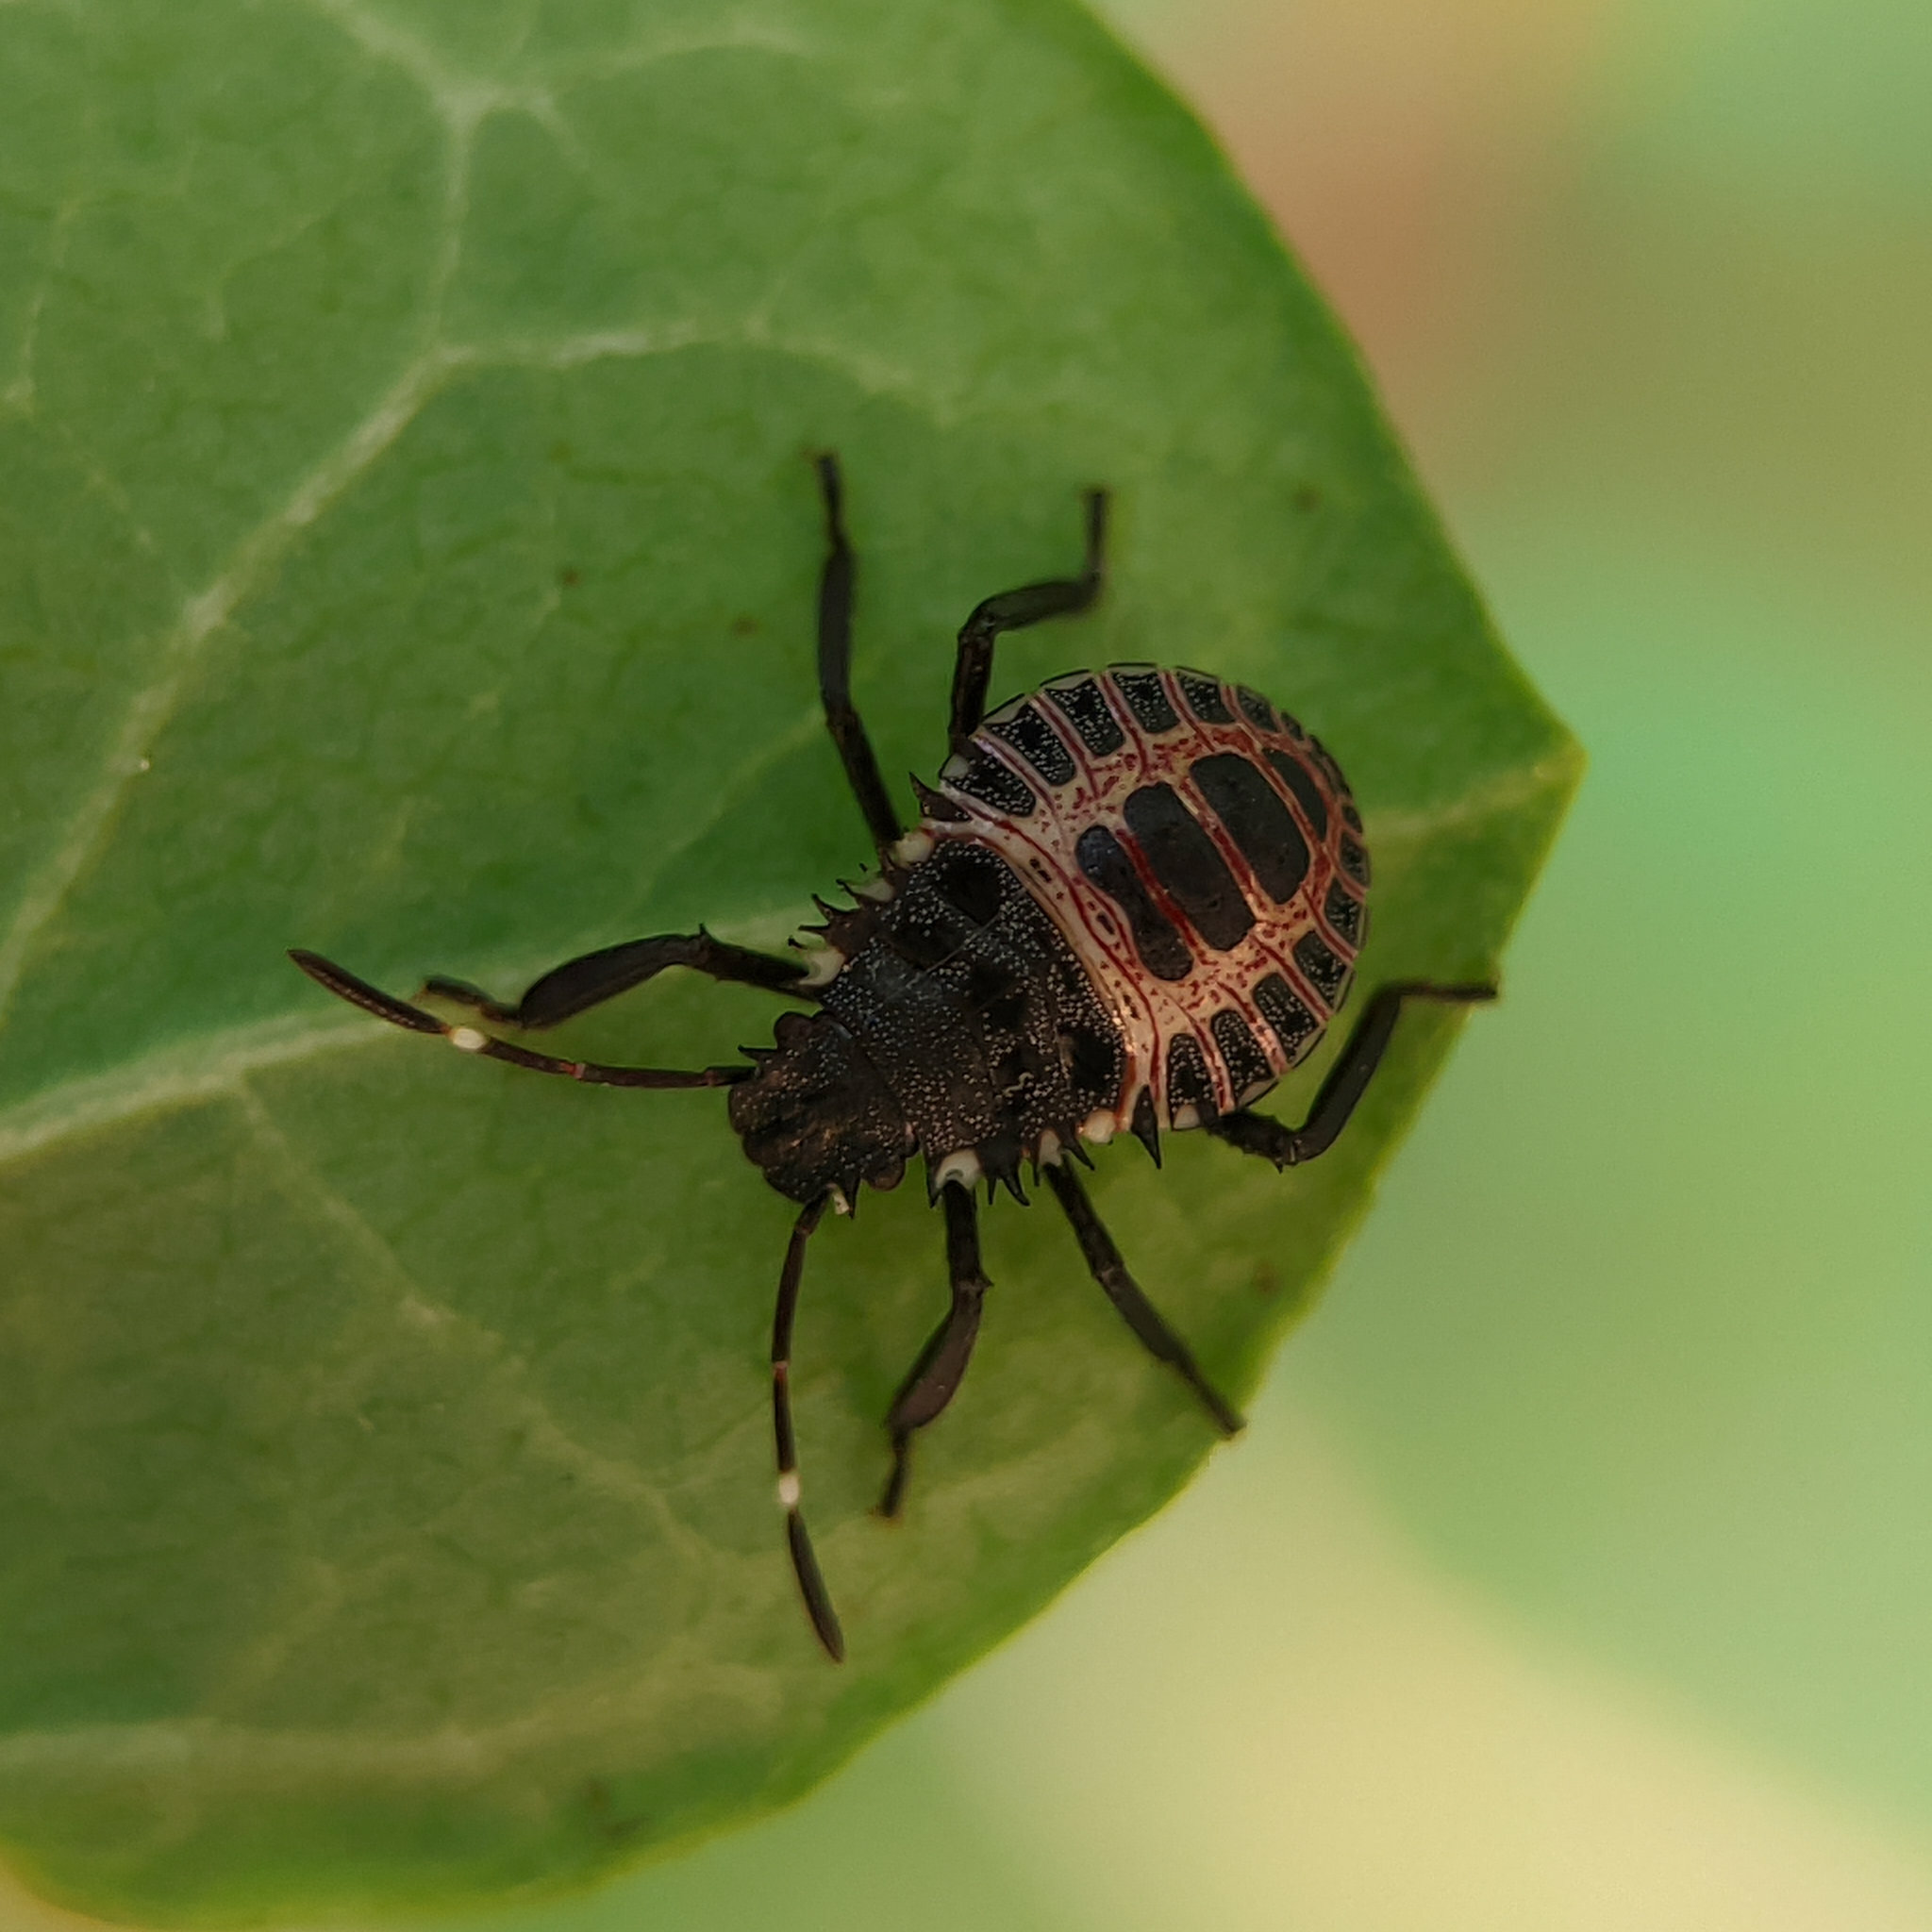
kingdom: Animalia
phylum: Arthropoda
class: Insecta
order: Hemiptera
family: Pentatomidae
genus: Halyomorpha
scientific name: Halyomorpha halys
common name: Brown marmorated stink bug
